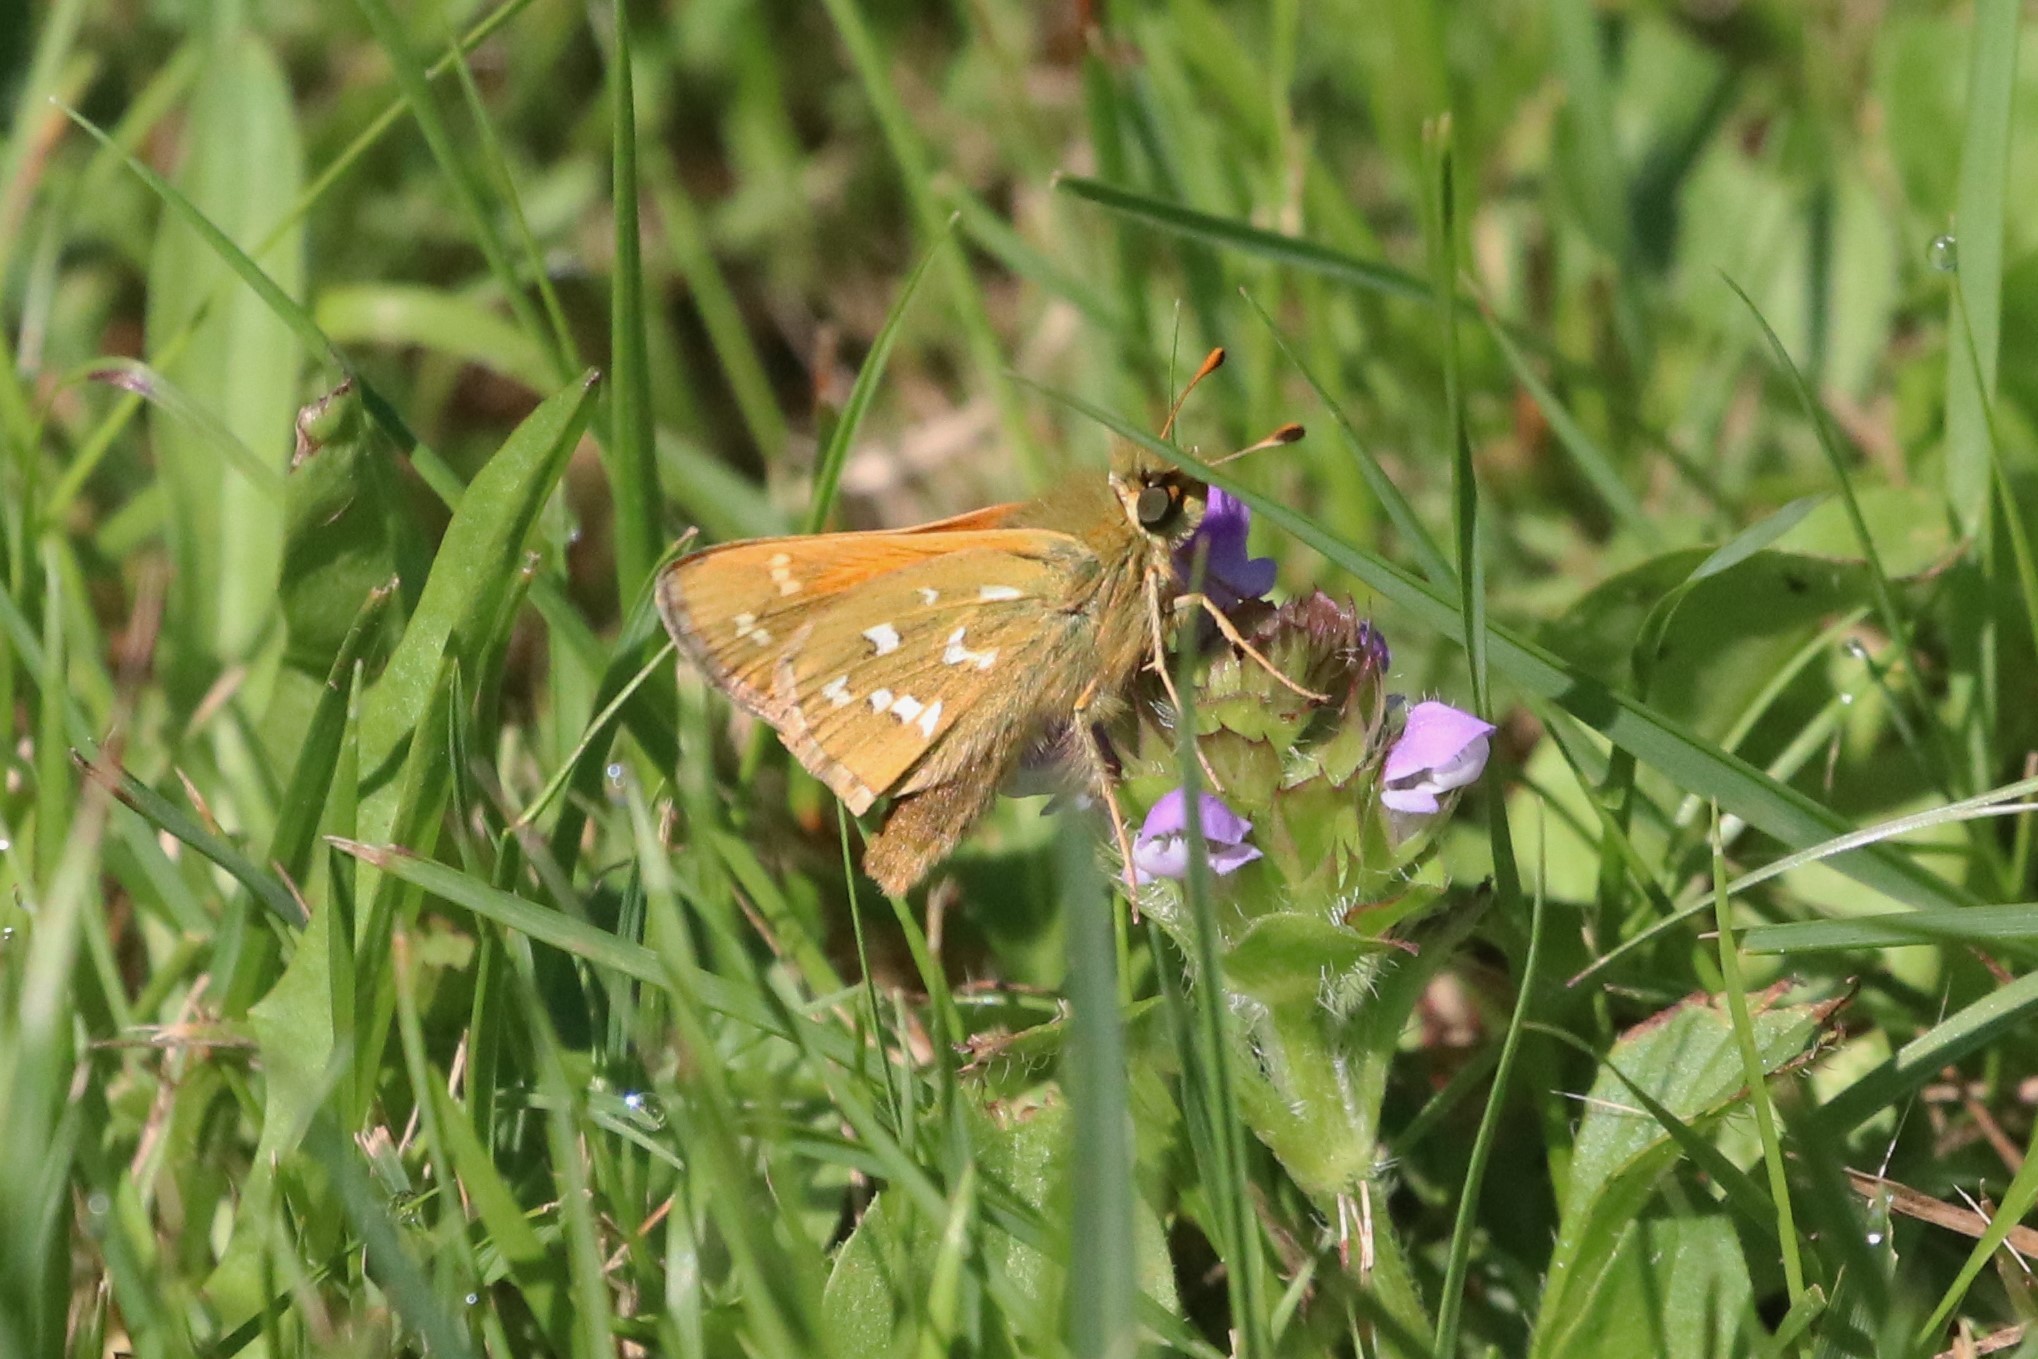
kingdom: Animalia
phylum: Arthropoda
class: Insecta
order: Lepidoptera
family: Hesperiidae
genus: Hesperia
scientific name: Hesperia comma
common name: Common branded skipper
